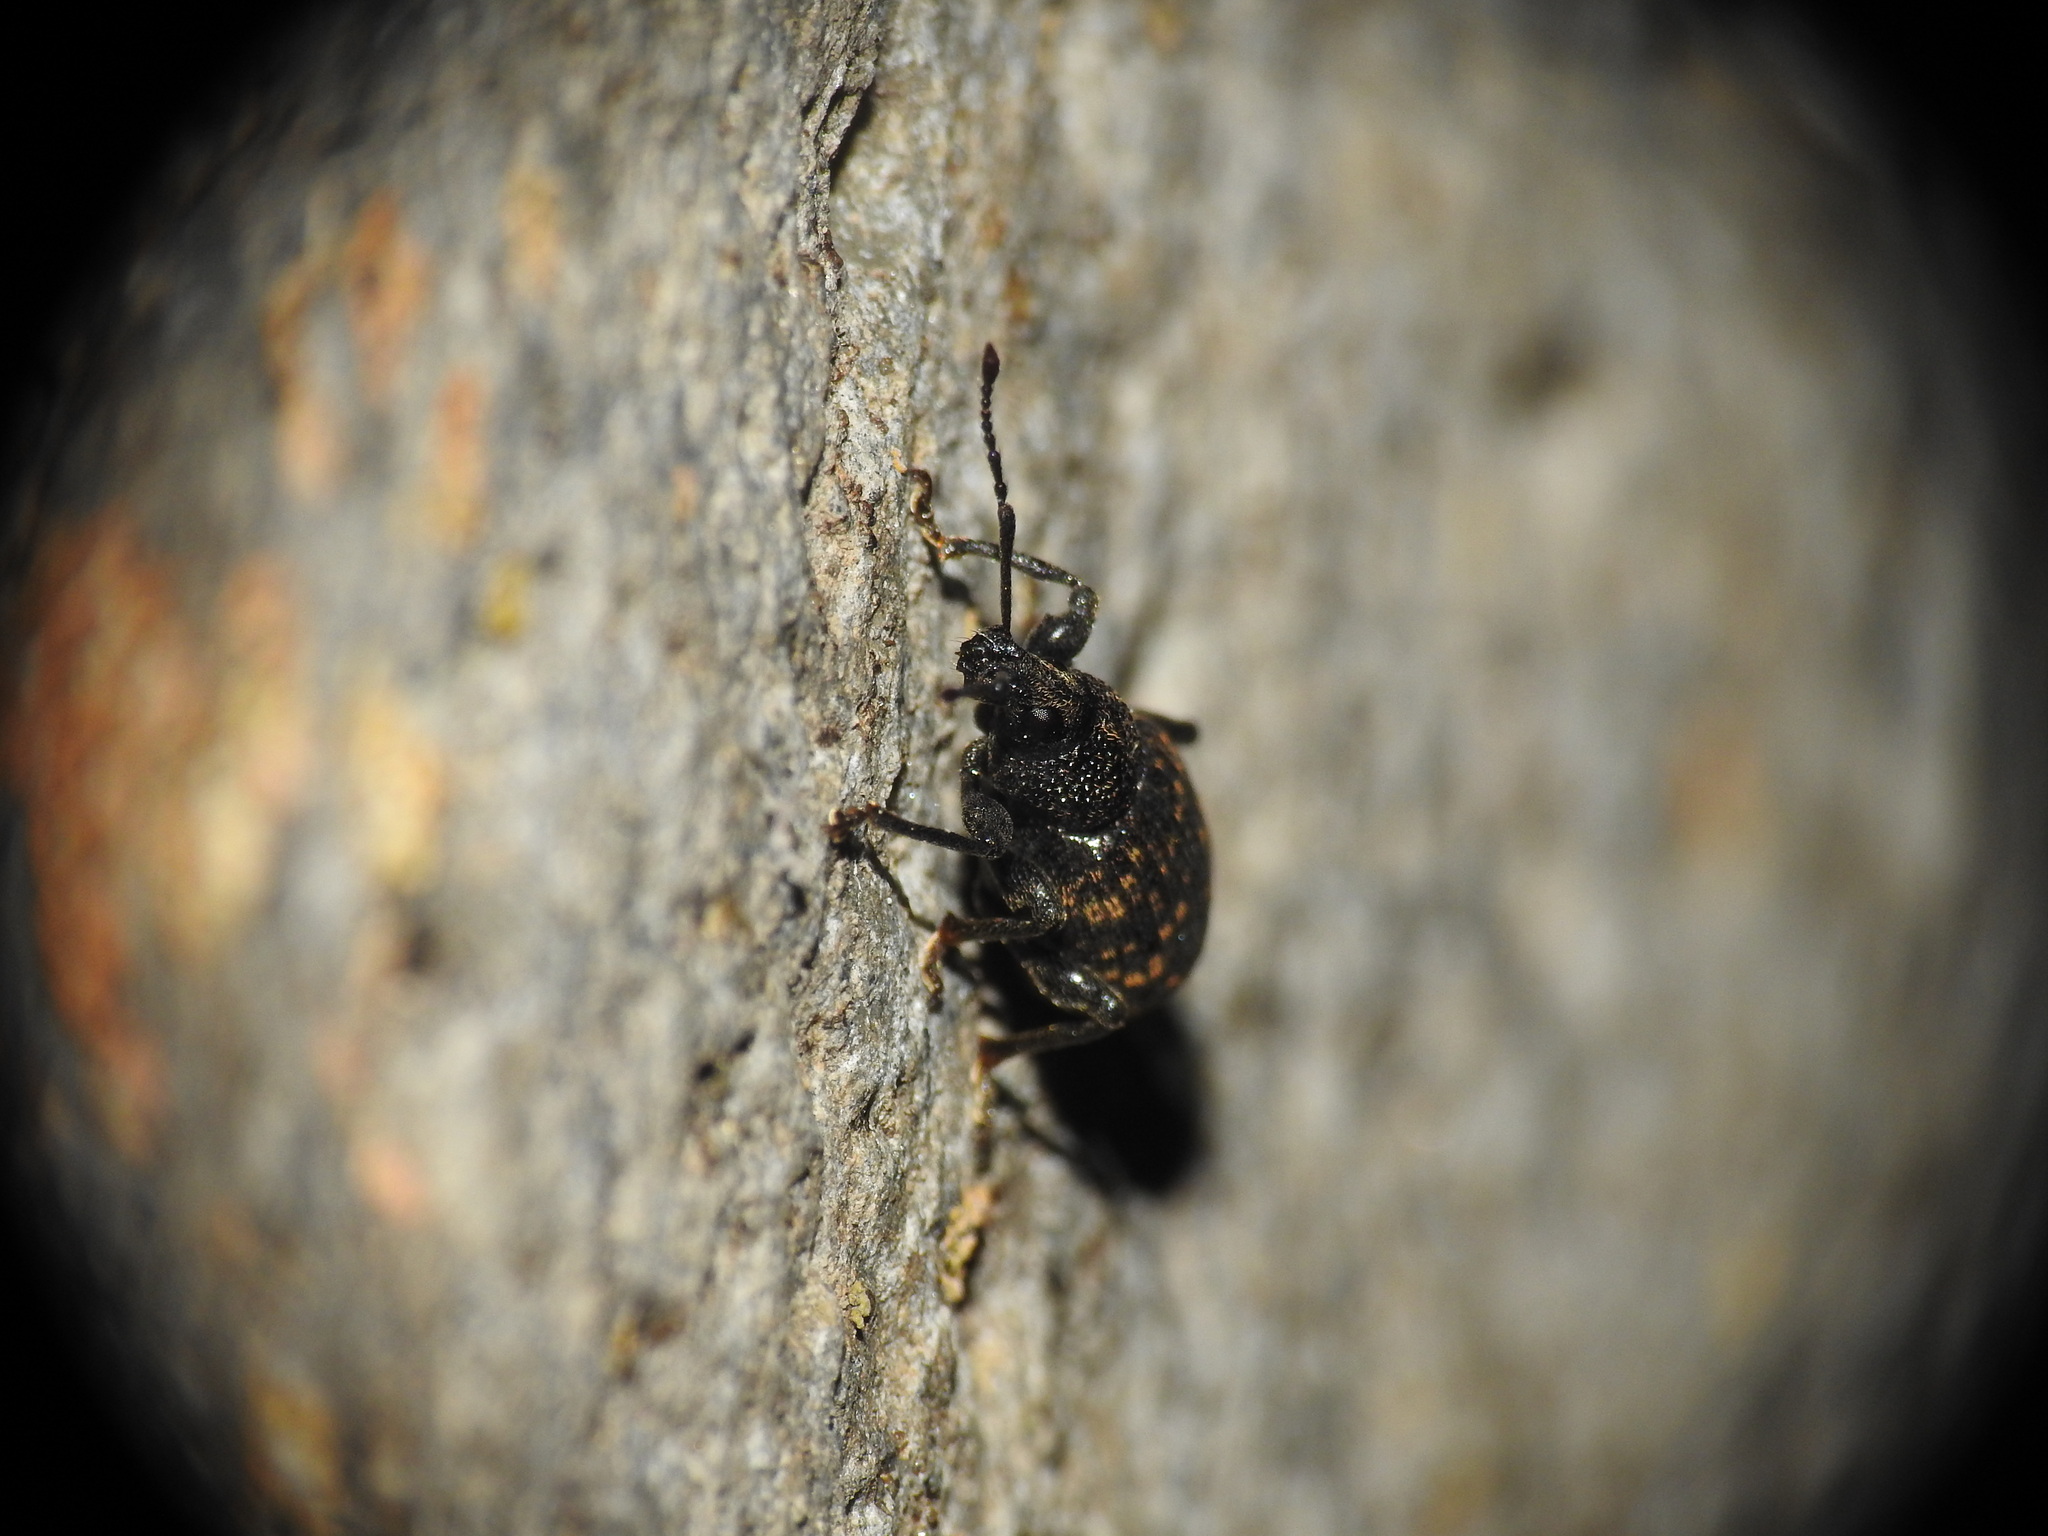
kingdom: Animalia
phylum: Arthropoda
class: Insecta
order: Coleoptera
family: Curculionidae
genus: Otiorhynchus
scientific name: Otiorhynchus sulcatus
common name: Black vine weevil
